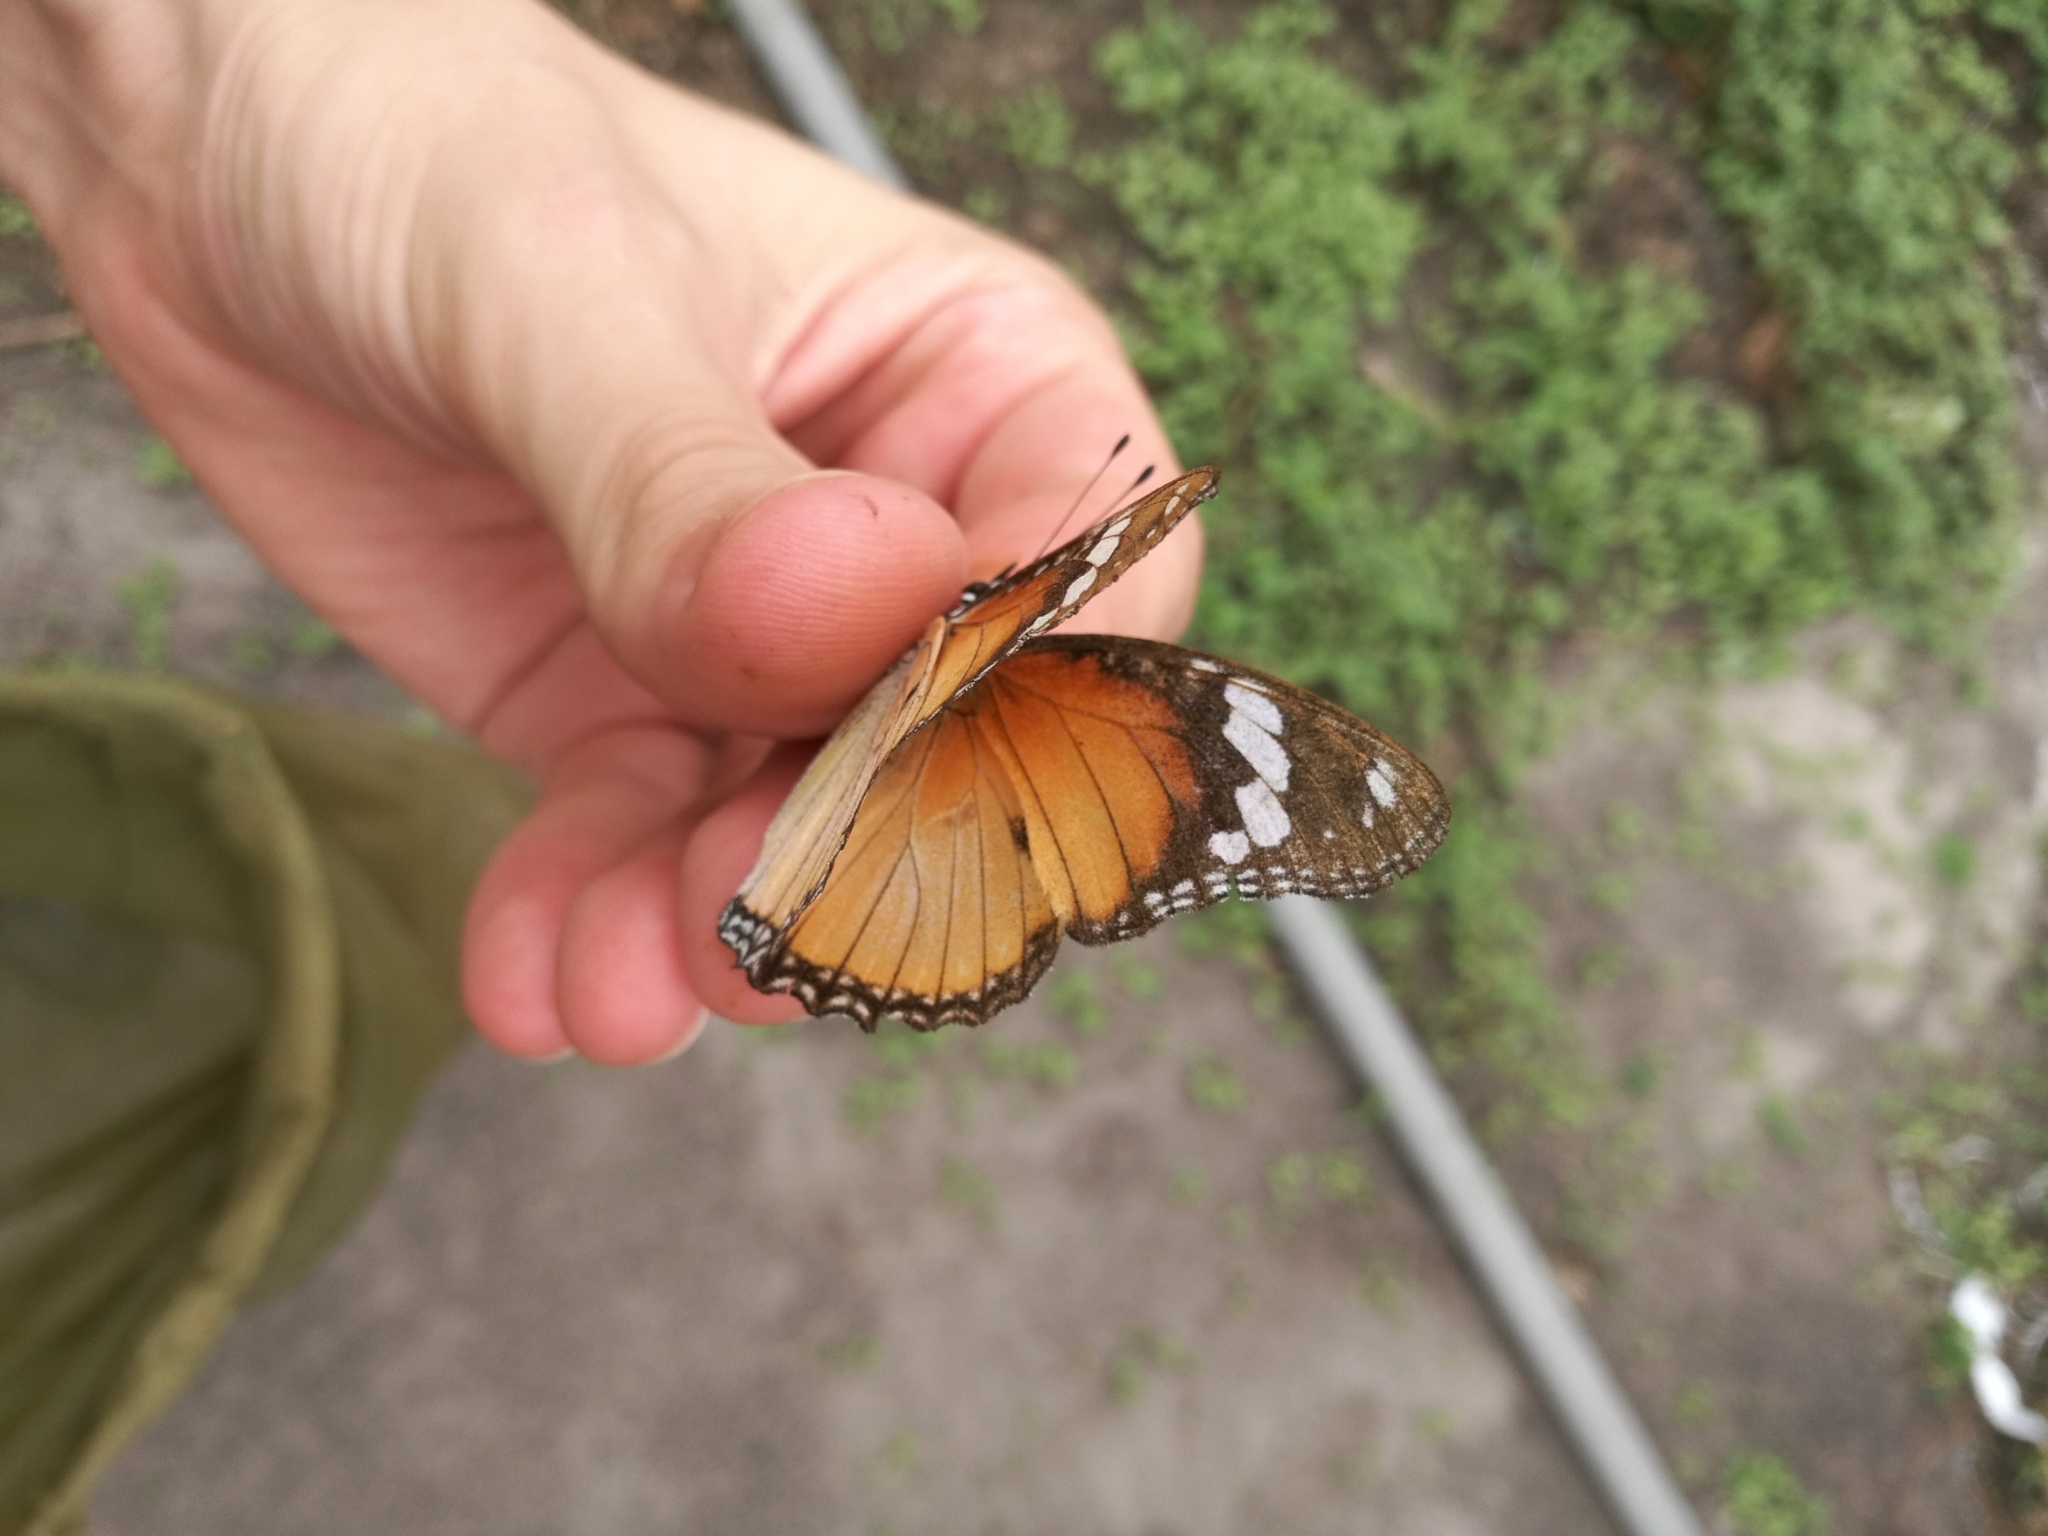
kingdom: Animalia
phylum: Arthropoda
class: Insecta
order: Lepidoptera
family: Nymphalidae
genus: Hypolimnas
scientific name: Hypolimnas misippus
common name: False plain tiger
